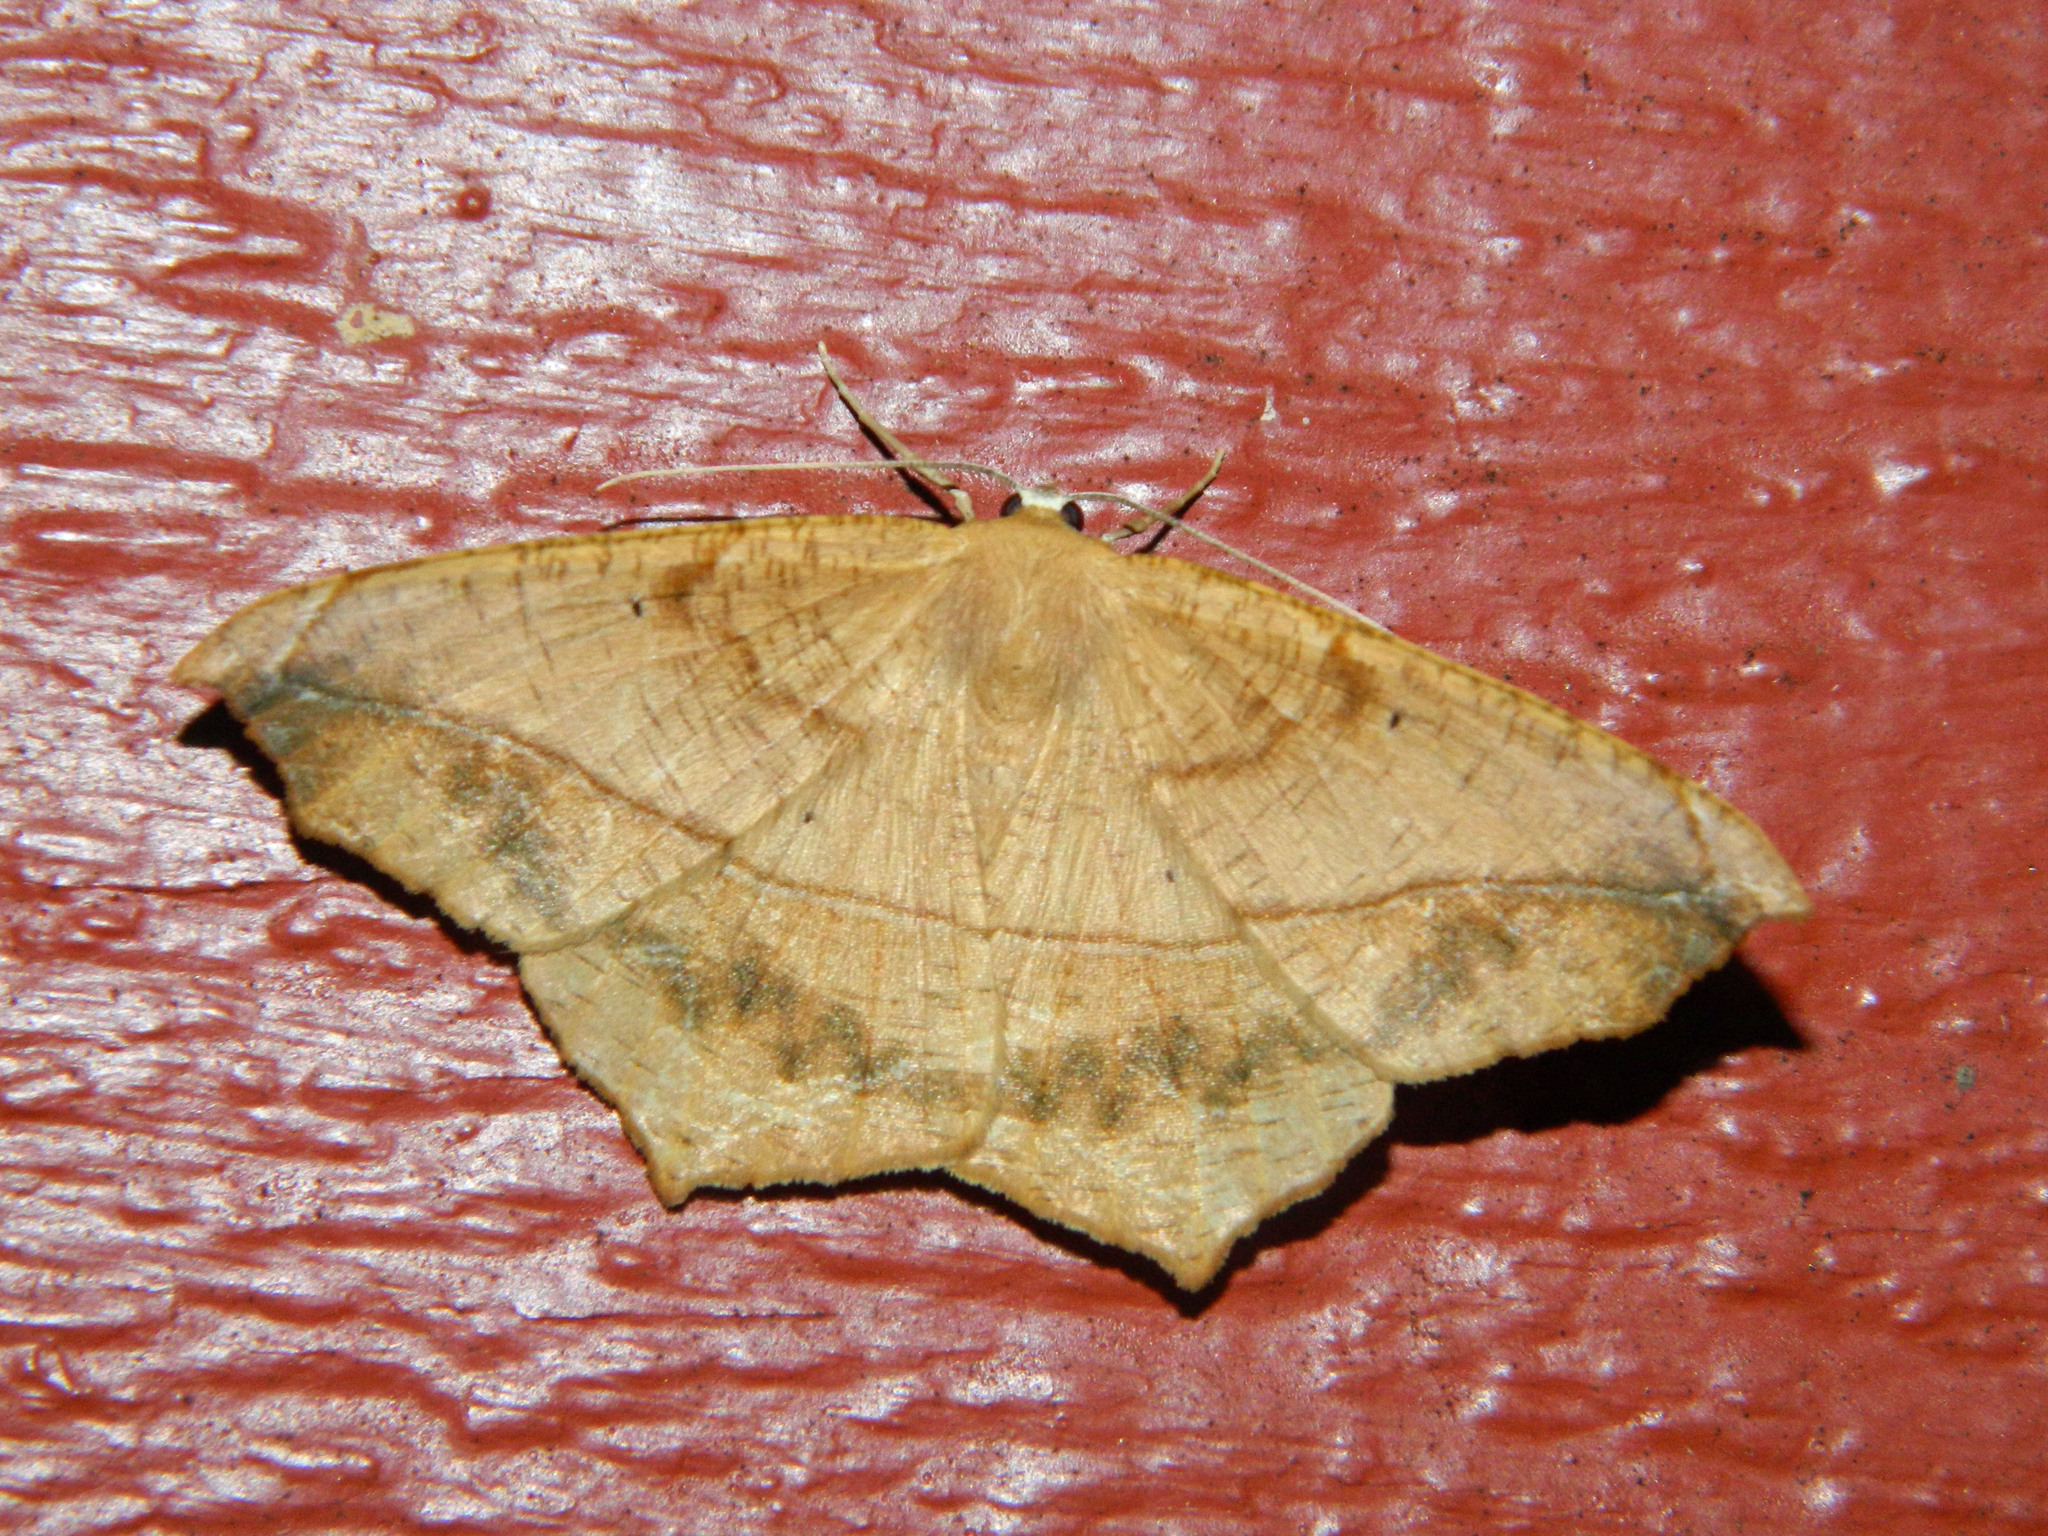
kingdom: Animalia
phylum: Arthropoda
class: Insecta
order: Lepidoptera
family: Geometridae
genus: Prochoerodes
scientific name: Prochoerodes lineola
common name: Large maple spanworm
